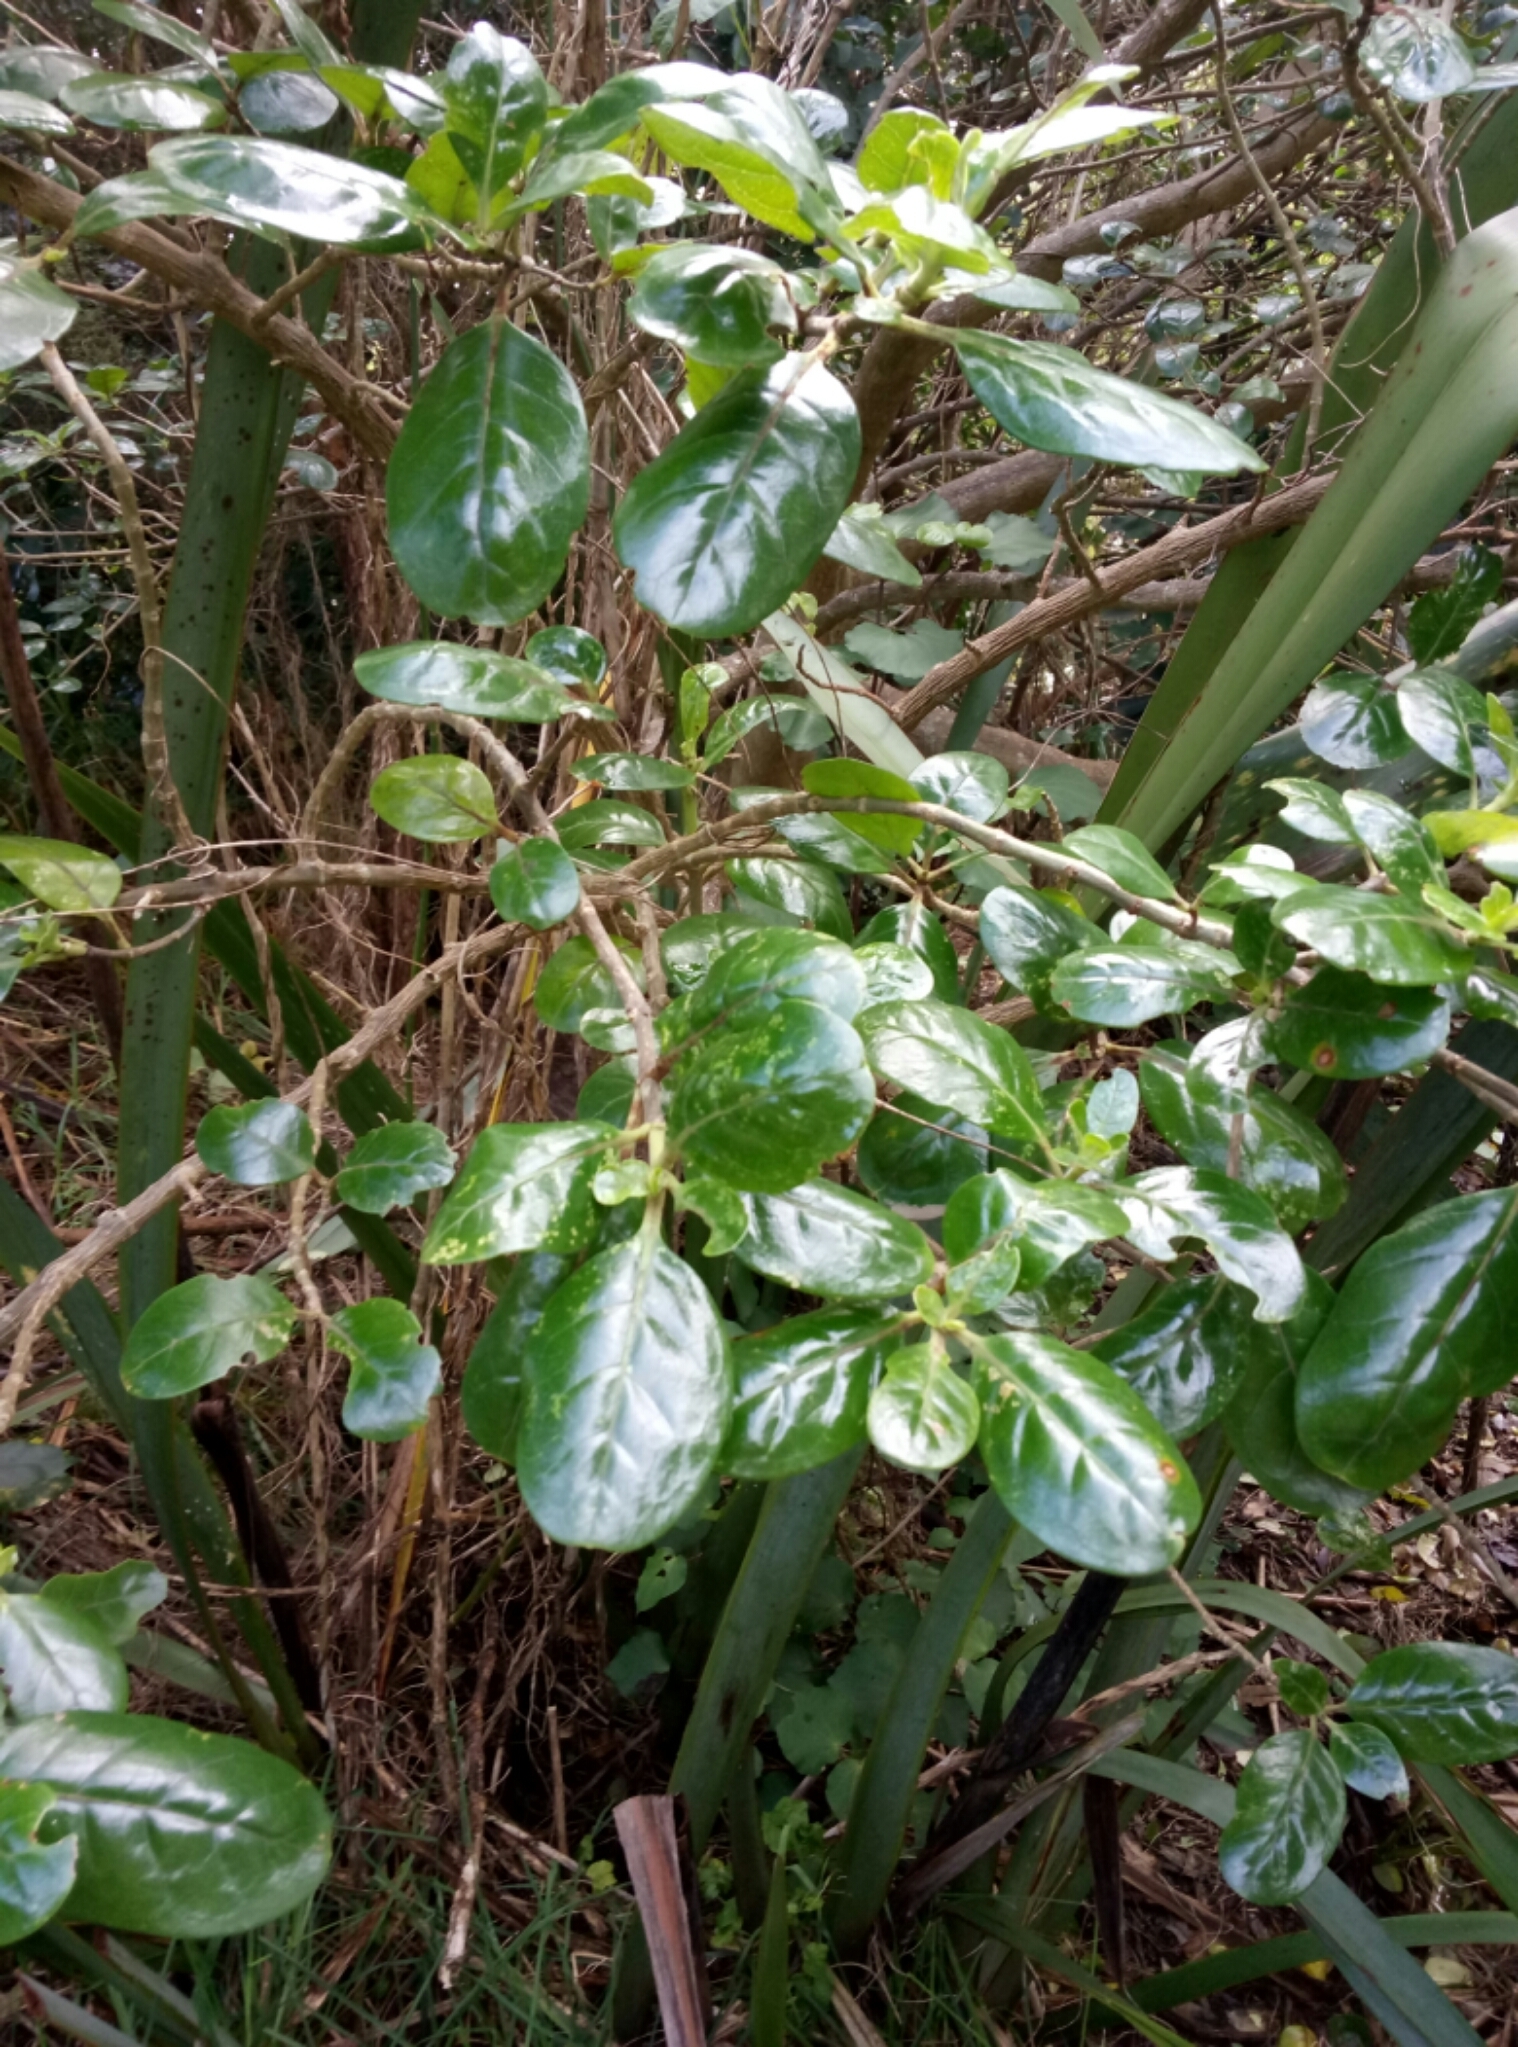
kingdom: Plantae
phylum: Tracheophyta
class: Magnoliopsida
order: Gentianales
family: Rubiaceae
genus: Coprosma
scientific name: Coprosma repens
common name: Tree bedstraw
